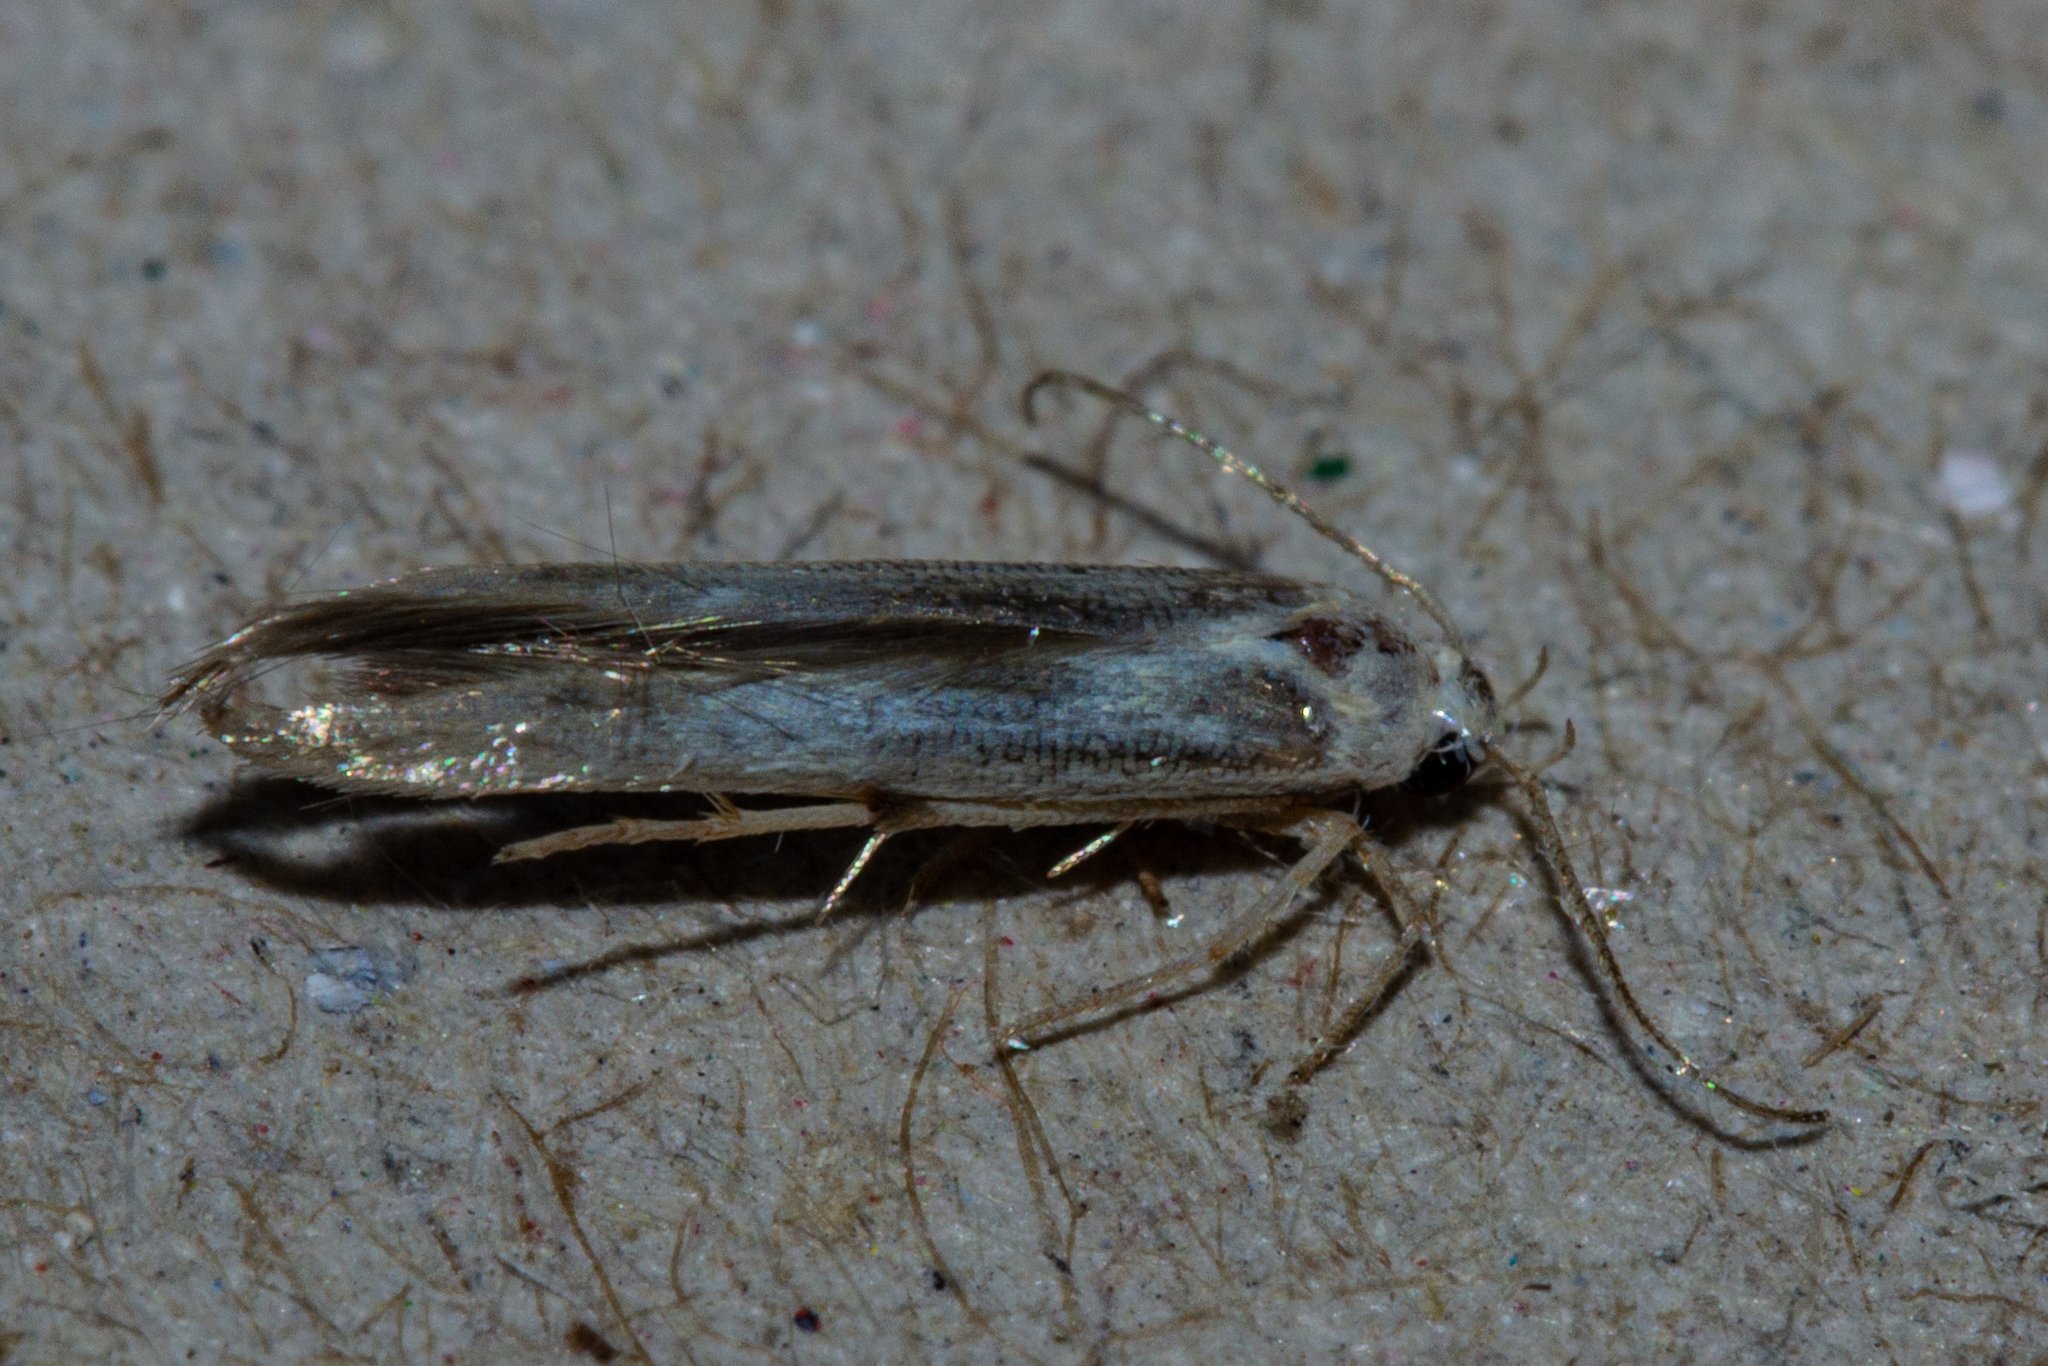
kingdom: Animalia
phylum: Arthropoda
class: Insecta
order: Lepidoptera
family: Stathmopodidae
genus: Stathmopoda
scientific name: Stathmopoda horticola
